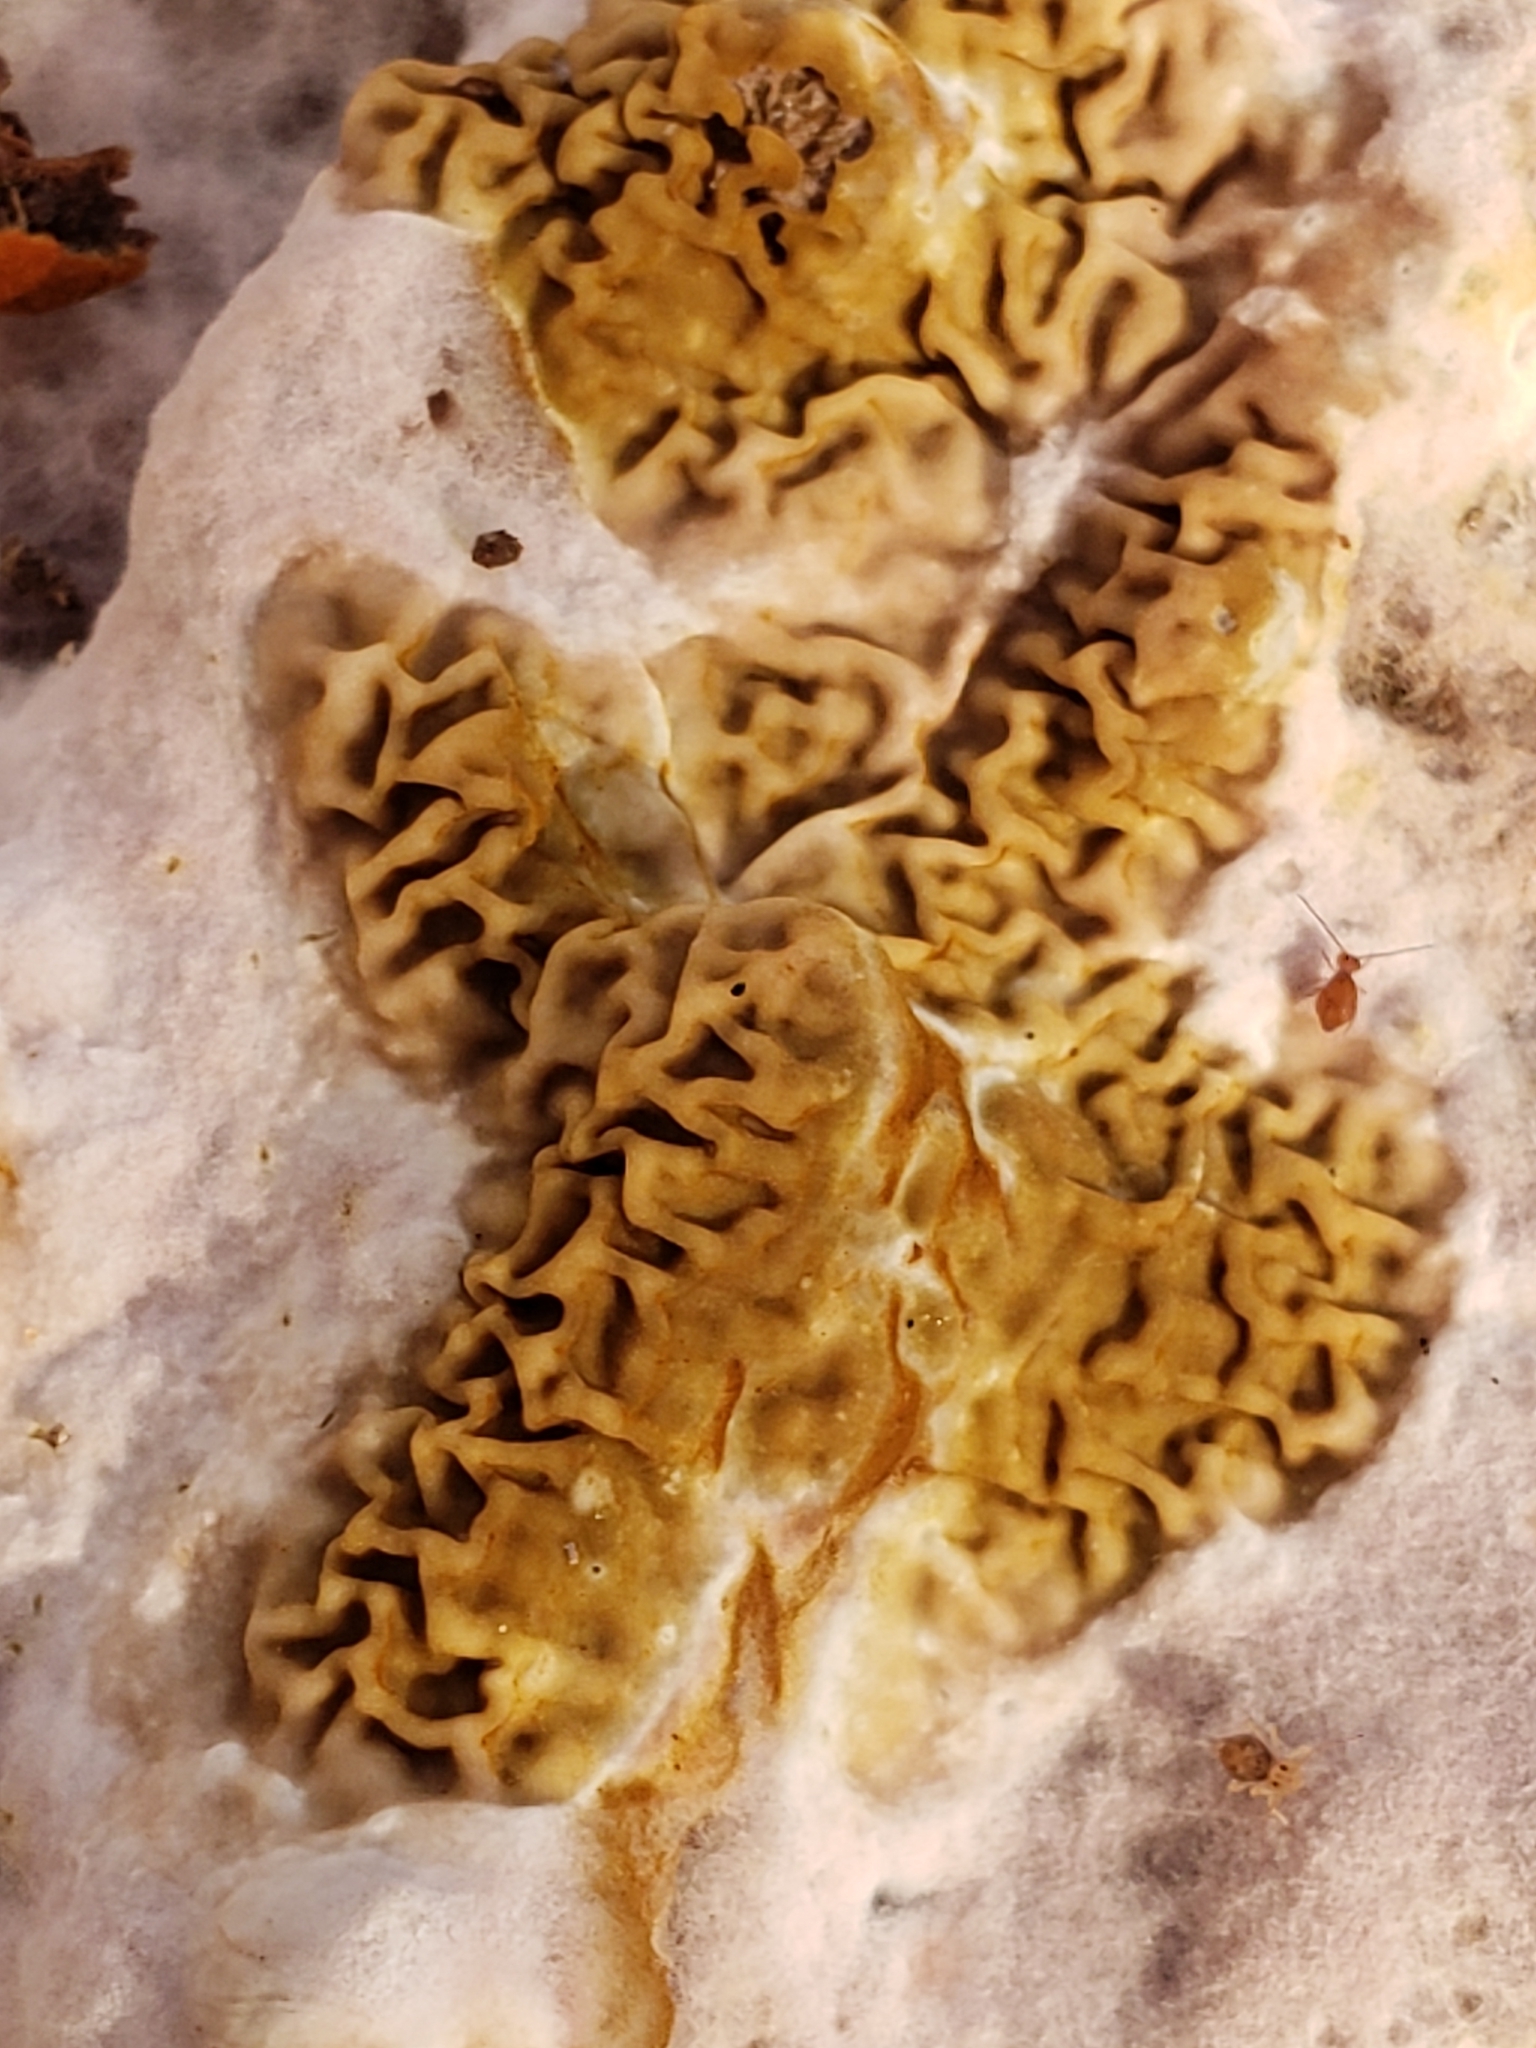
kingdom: Fungi
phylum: Basidiomycota
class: Agaricomycetes
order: Boletales
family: Serpulaceae
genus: Serpula
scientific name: Serpula himantioides
